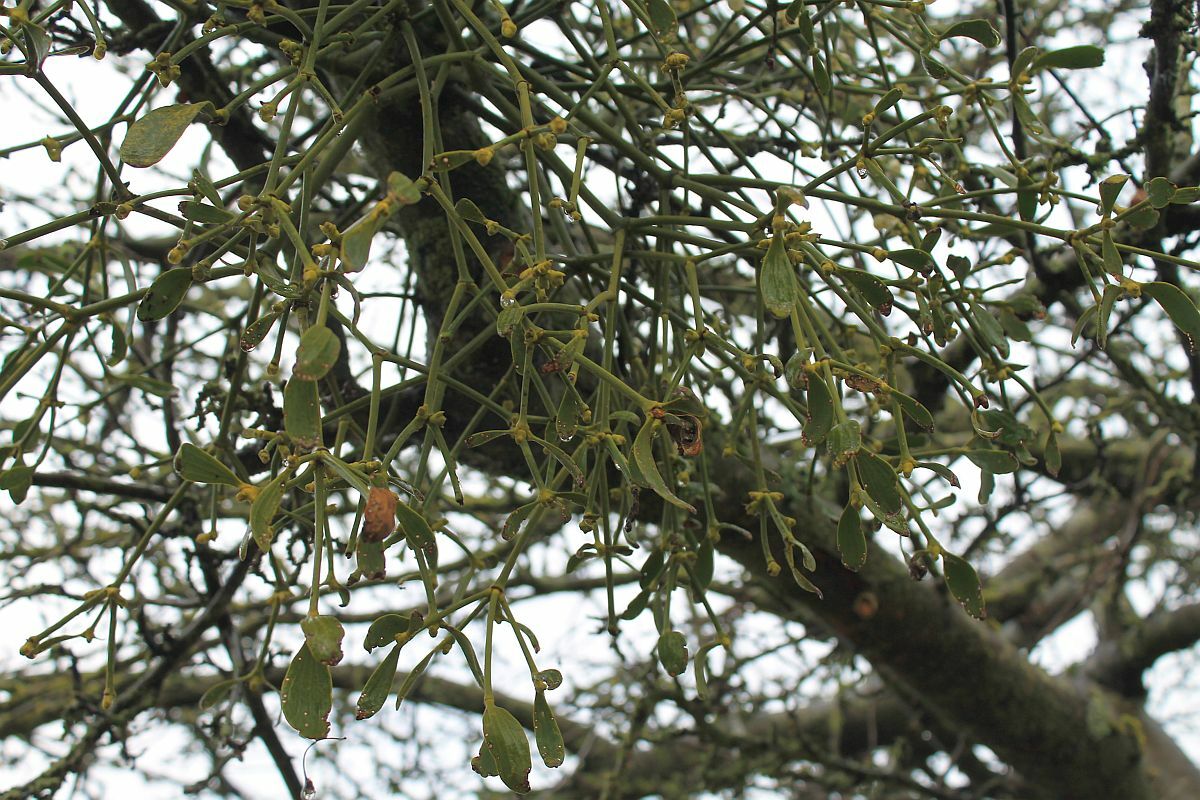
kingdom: Plantae
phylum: Tracheophyta
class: Magnoliopsida
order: Santalales
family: Viscaceae
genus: Viscum
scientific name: Viscum album
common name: Mistletoe
